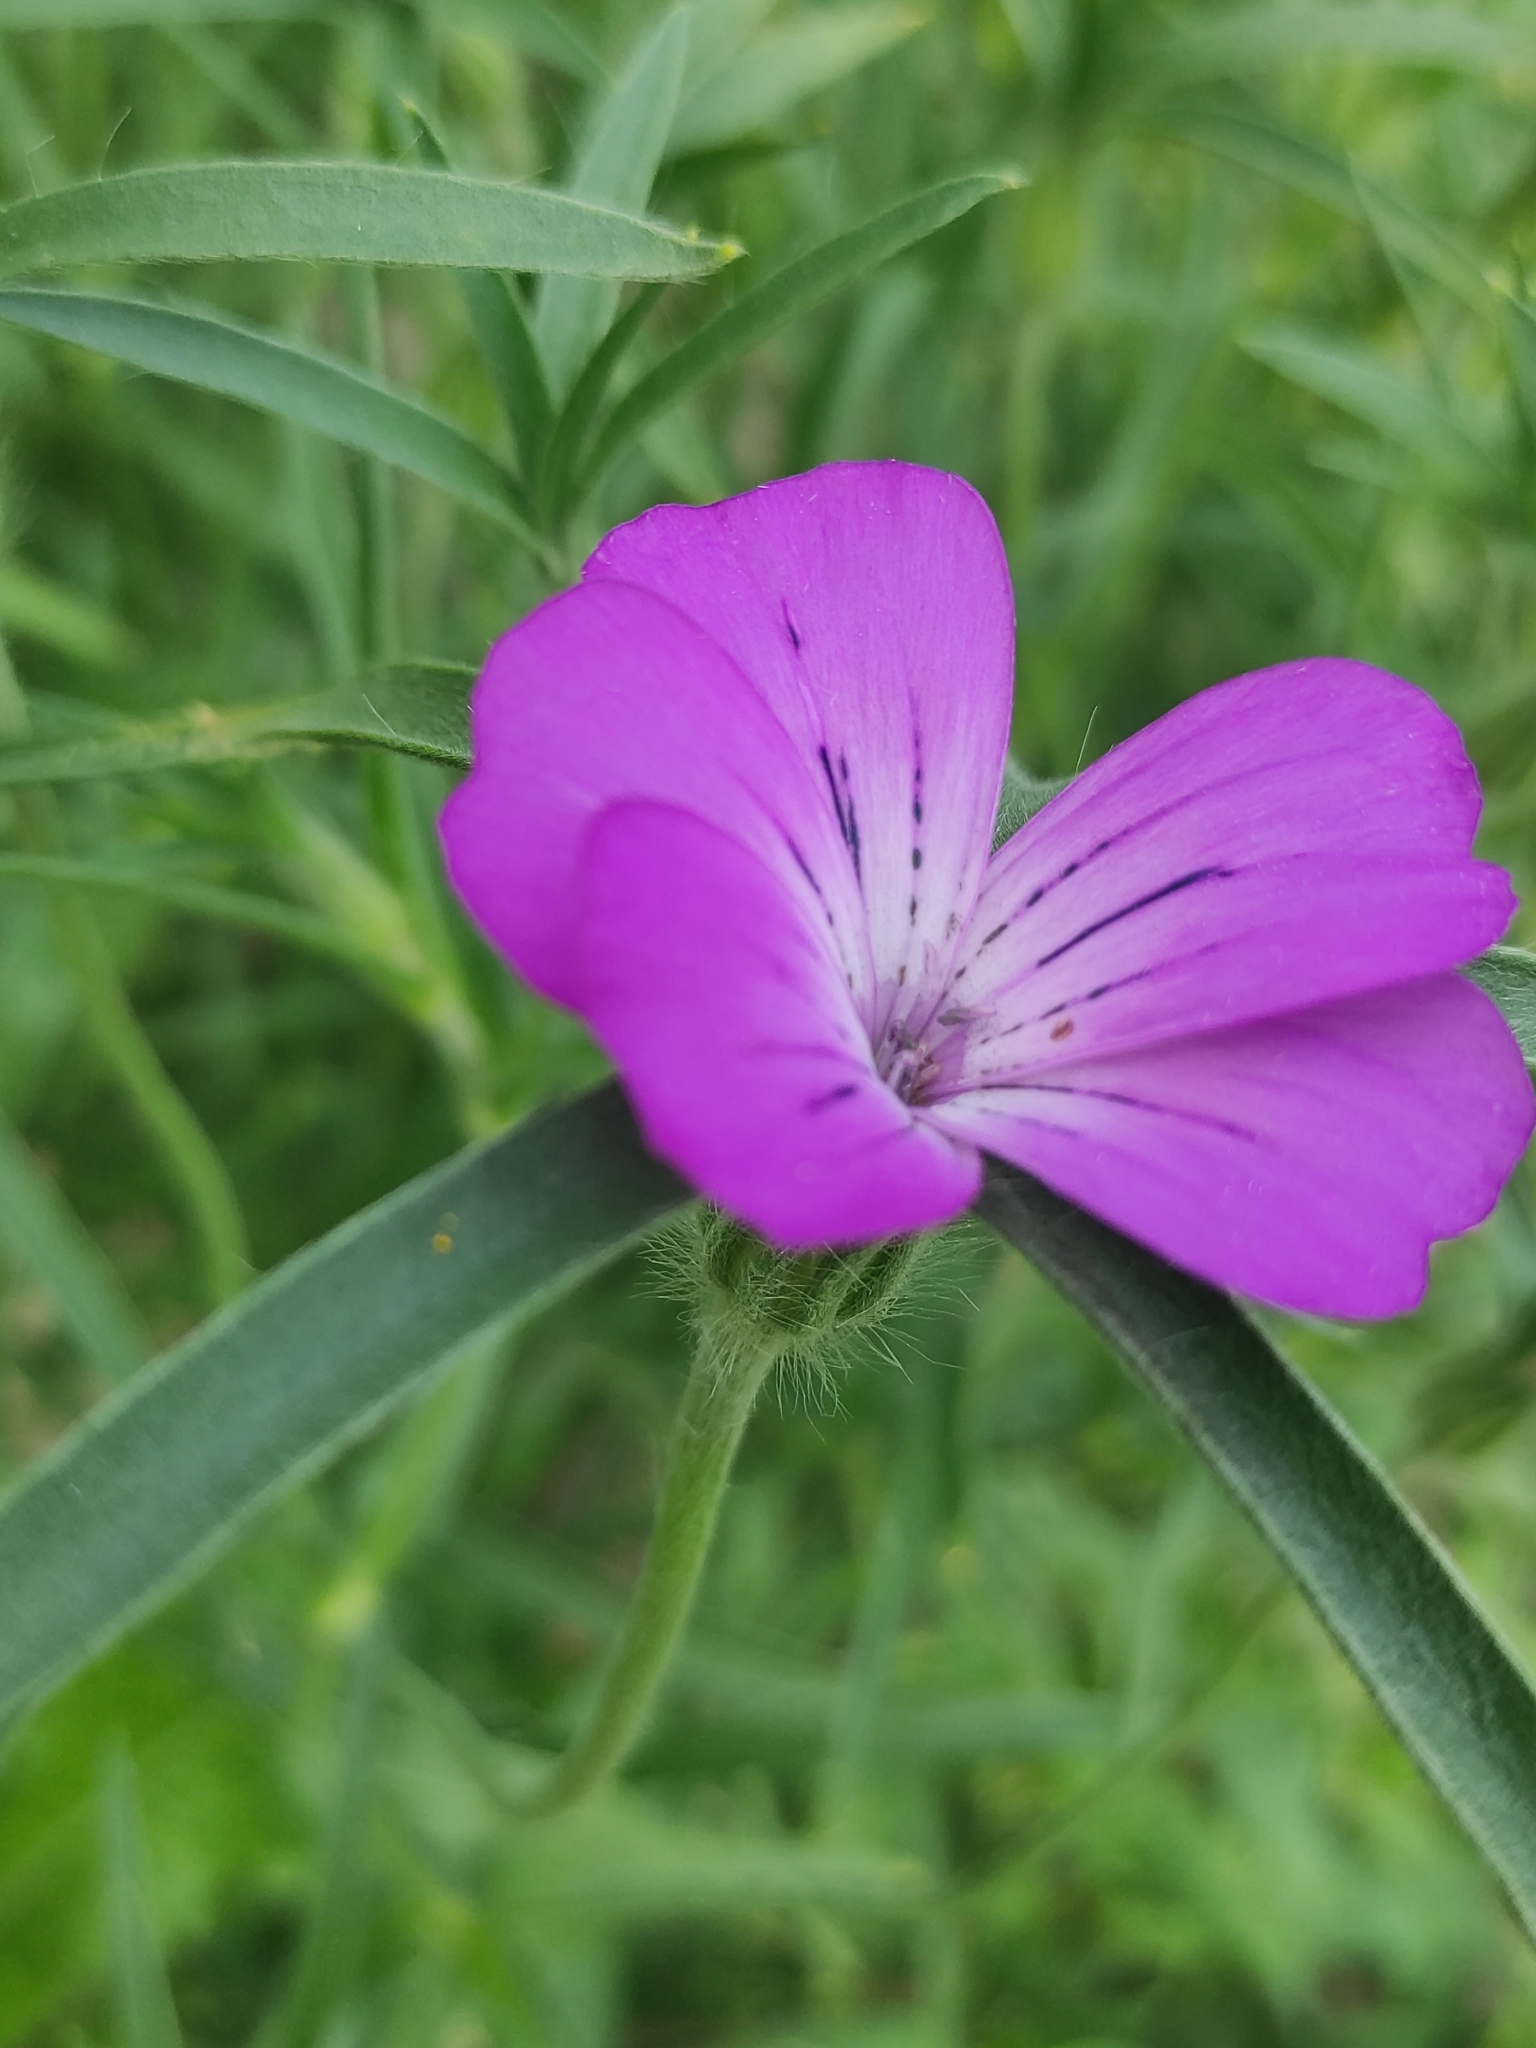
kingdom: Plantae
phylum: Tracheophyta
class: Magnoliopsida
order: Caryophyllales
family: Caryophyllaceae
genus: Agrostemma
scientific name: Agrostemma githago
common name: Common corncockle
